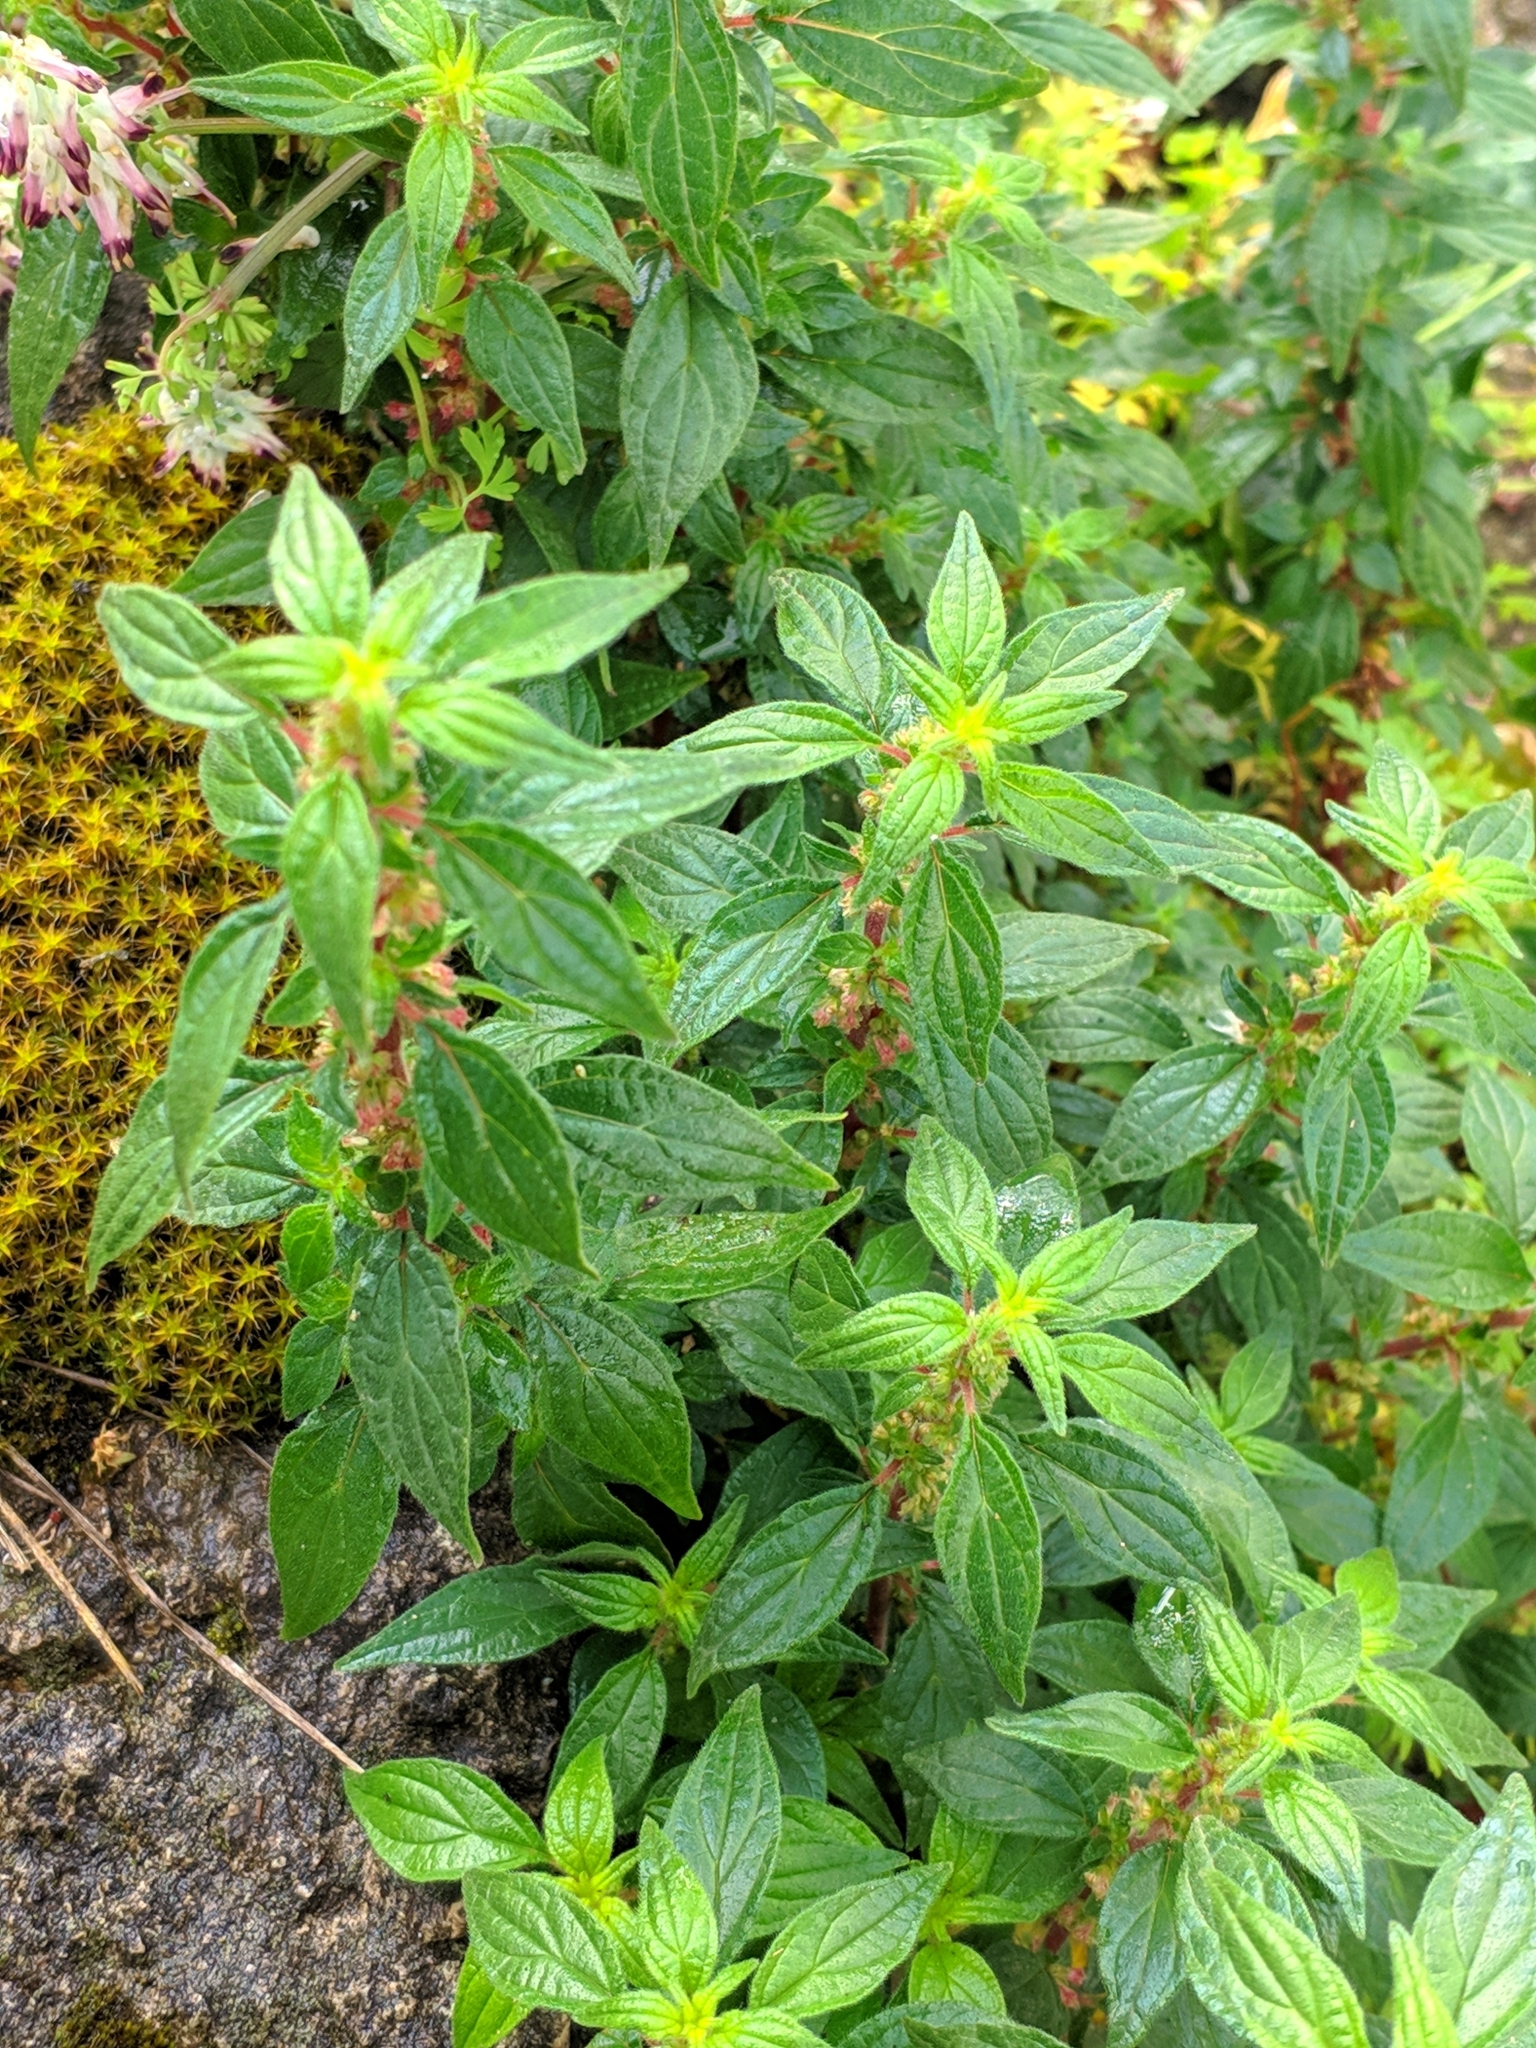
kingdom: Plantae
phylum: Tracheophyta
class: Magnoliopsida
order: Rosales
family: Urticaceae
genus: Parietaria
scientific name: Parietaria judaica
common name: Pellitory-of-the-wall
